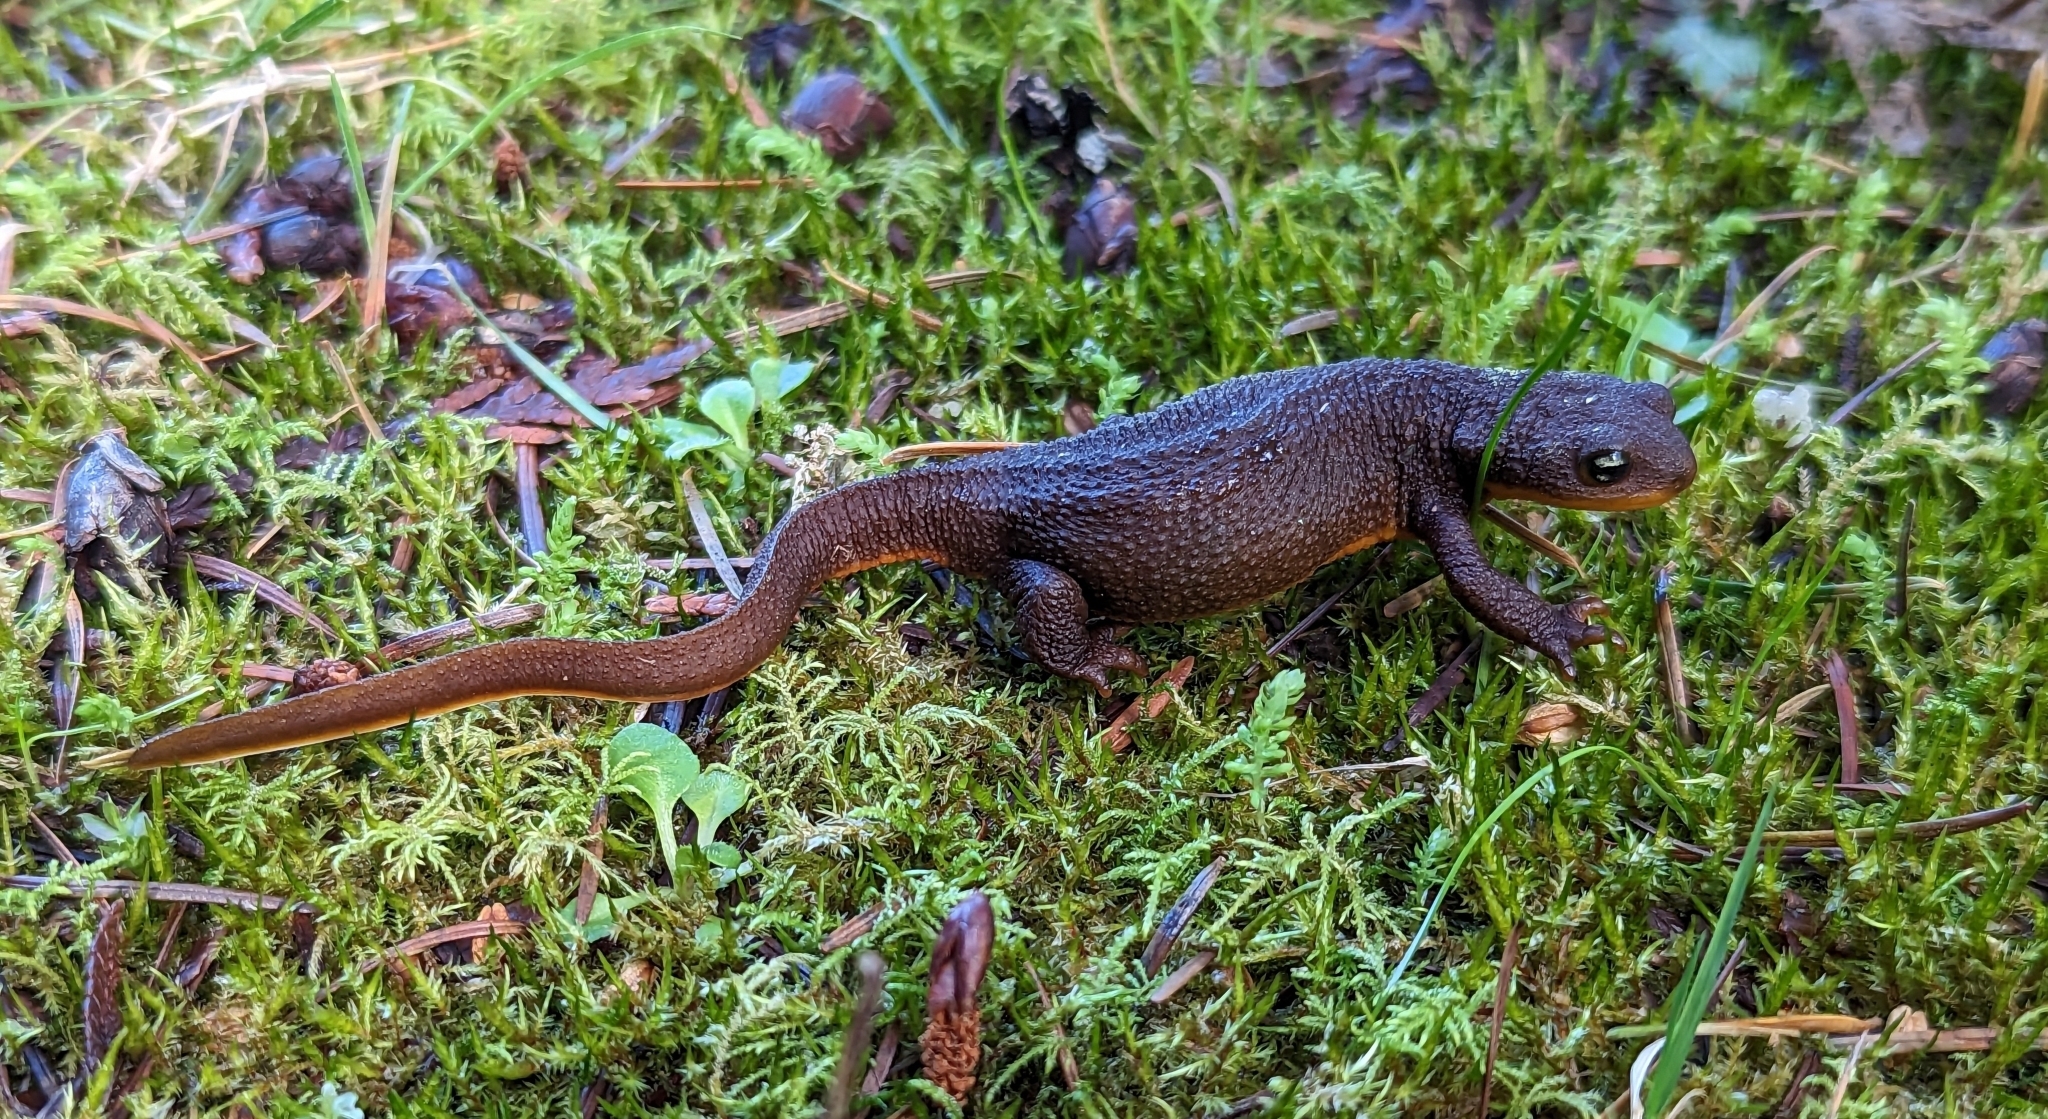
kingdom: Animalia
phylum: Chordata
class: Amphibia
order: Caudata
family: Salamandridae
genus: Taricha
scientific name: Taricha granulosa
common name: Roughskin newt
